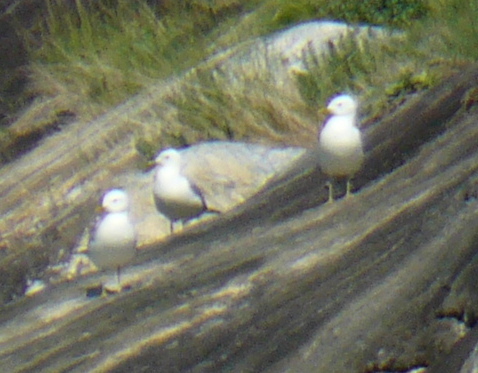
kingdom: Animalia
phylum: Chordata
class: Aves
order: Charadriiformes
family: Laridae
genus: Larus
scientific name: Larus canus
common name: Mew gull
